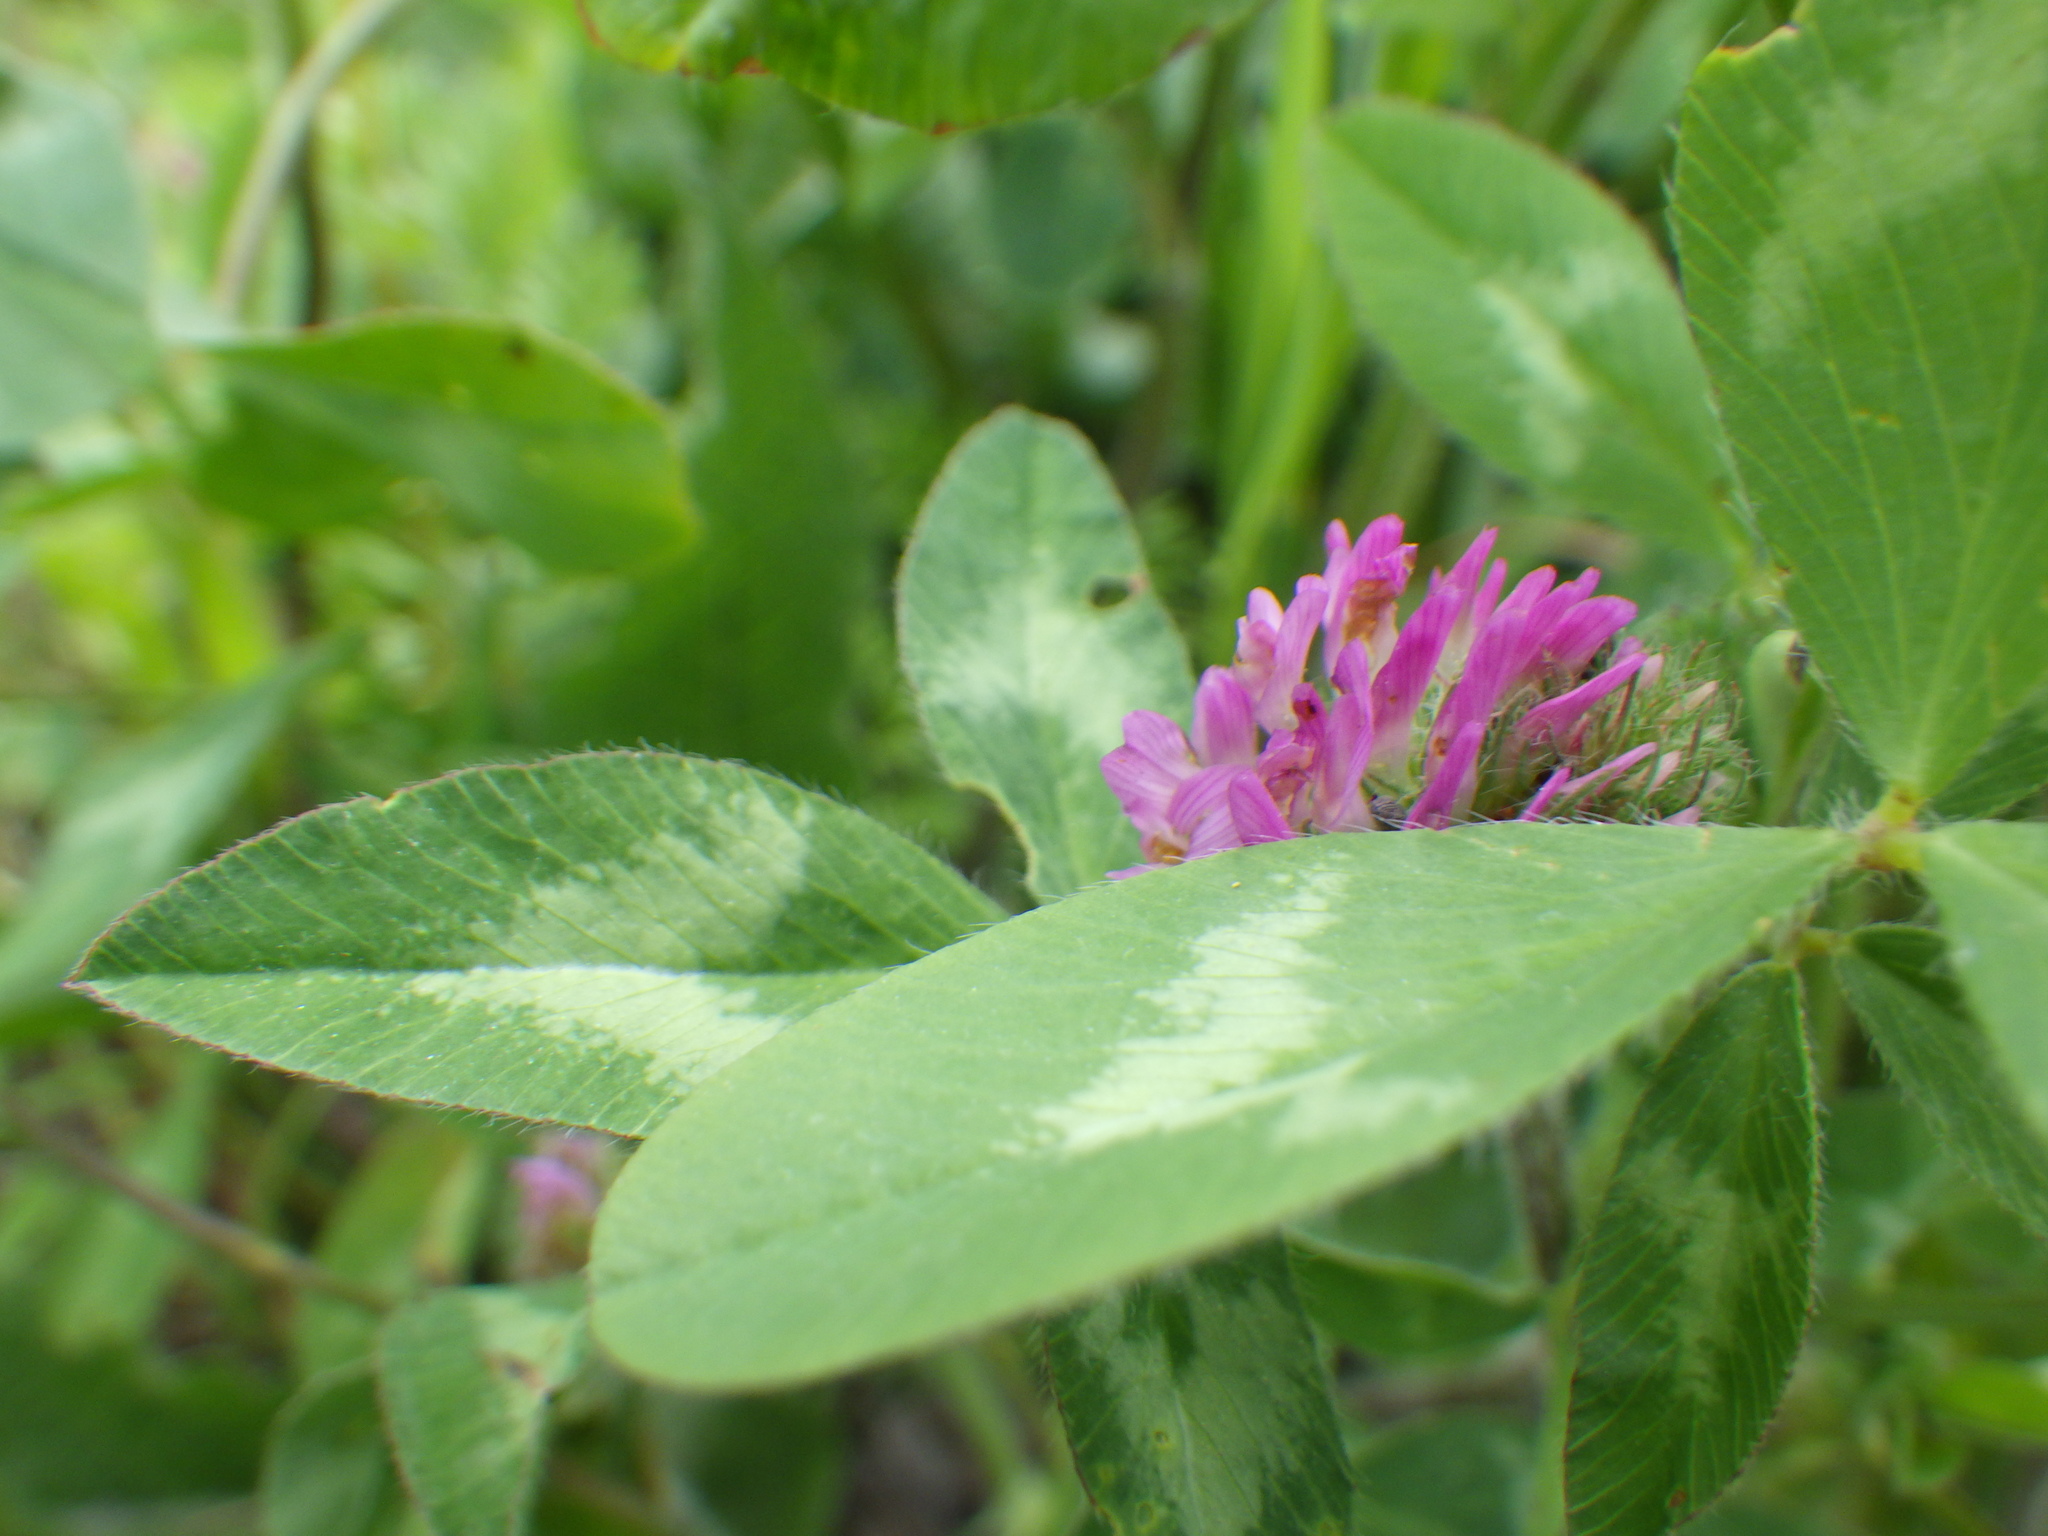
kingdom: Plantae
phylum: Tracheophyta
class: Magnoliopsida
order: Fabales
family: Fabaceae
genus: Trifolium
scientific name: Trifolium pratense
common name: Red clover
